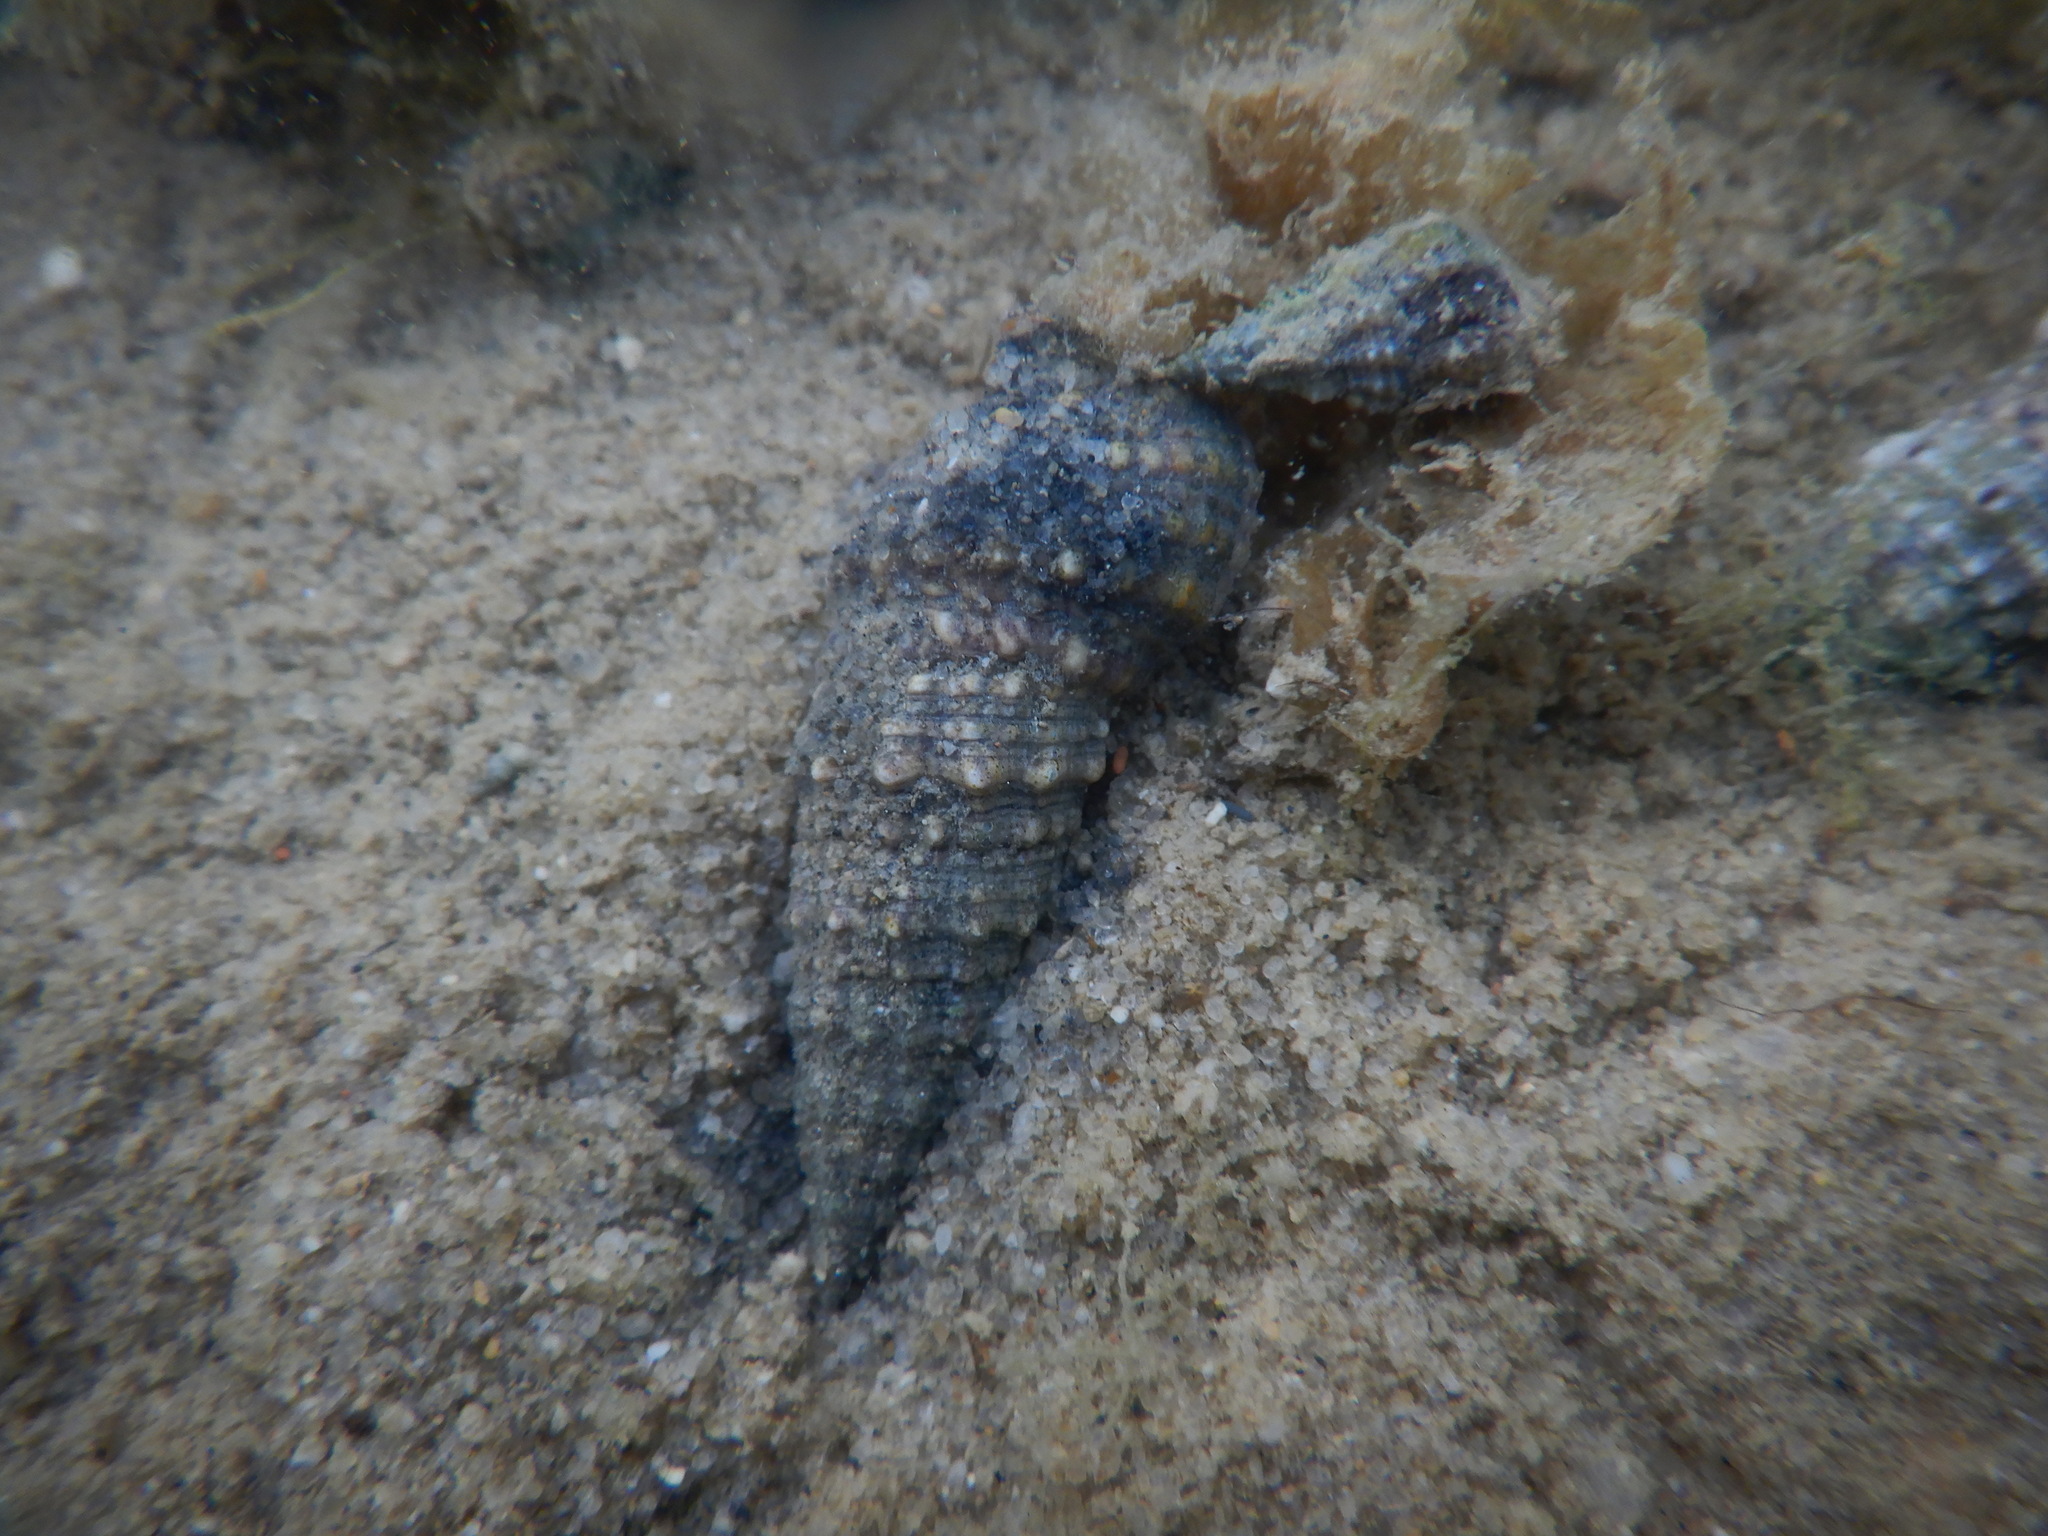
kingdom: Animalia
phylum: Mollusca
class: Gastropoda
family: Cerithiidae
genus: Cerithium
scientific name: Cerithium vulgatum
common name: European cerith
